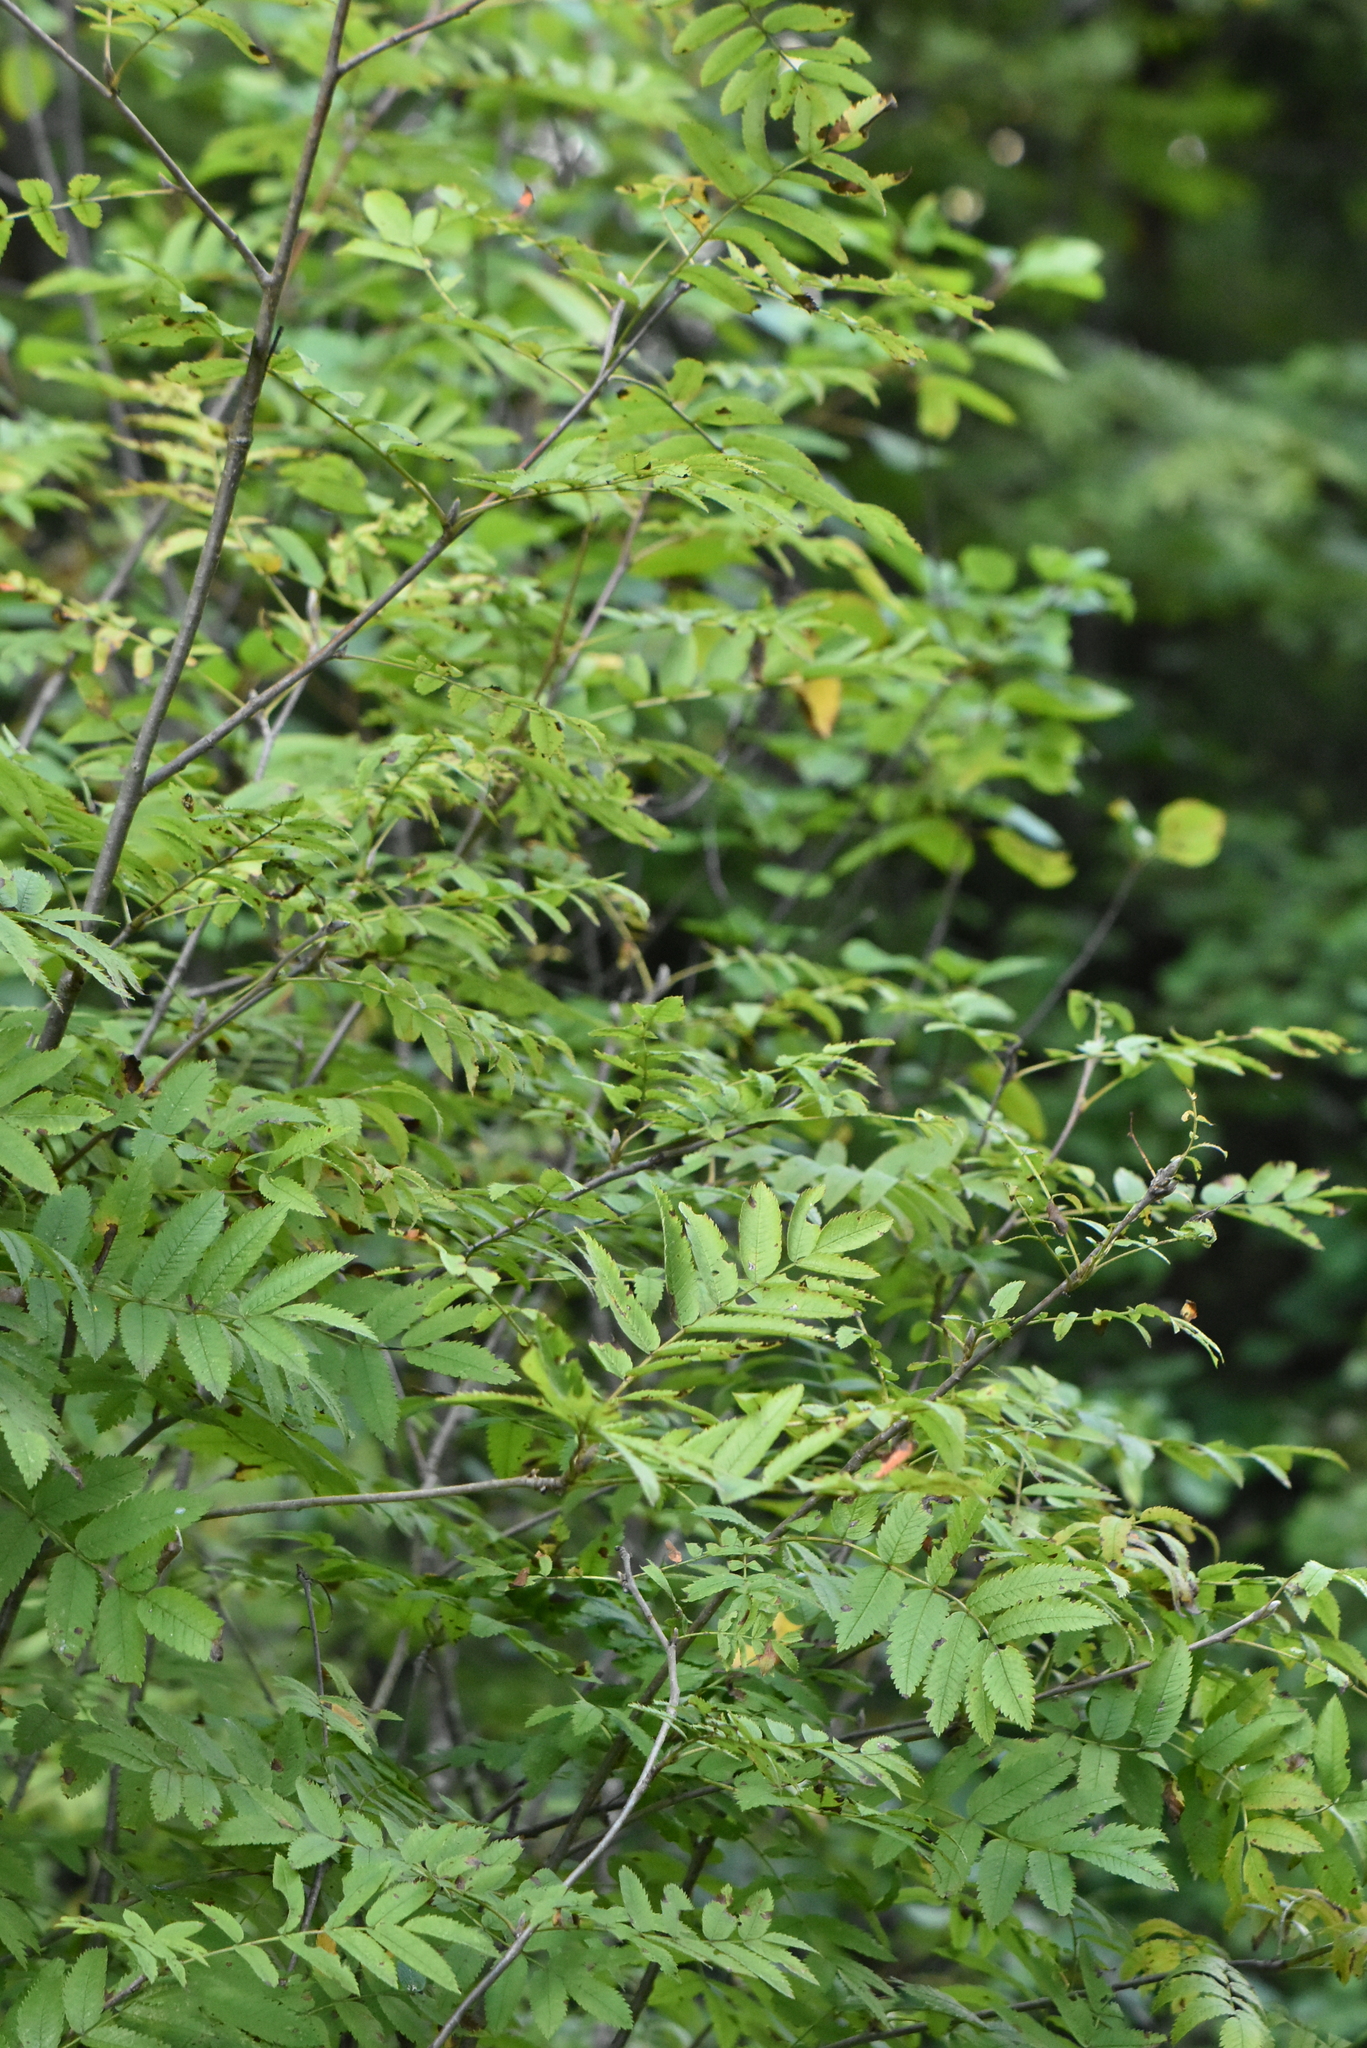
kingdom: Plantae
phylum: Tracheophyta
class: Magnoliopsida
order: Rosales
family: Rosaceae
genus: Sorbus
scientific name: Sorbus aucuparia
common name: Rowan
